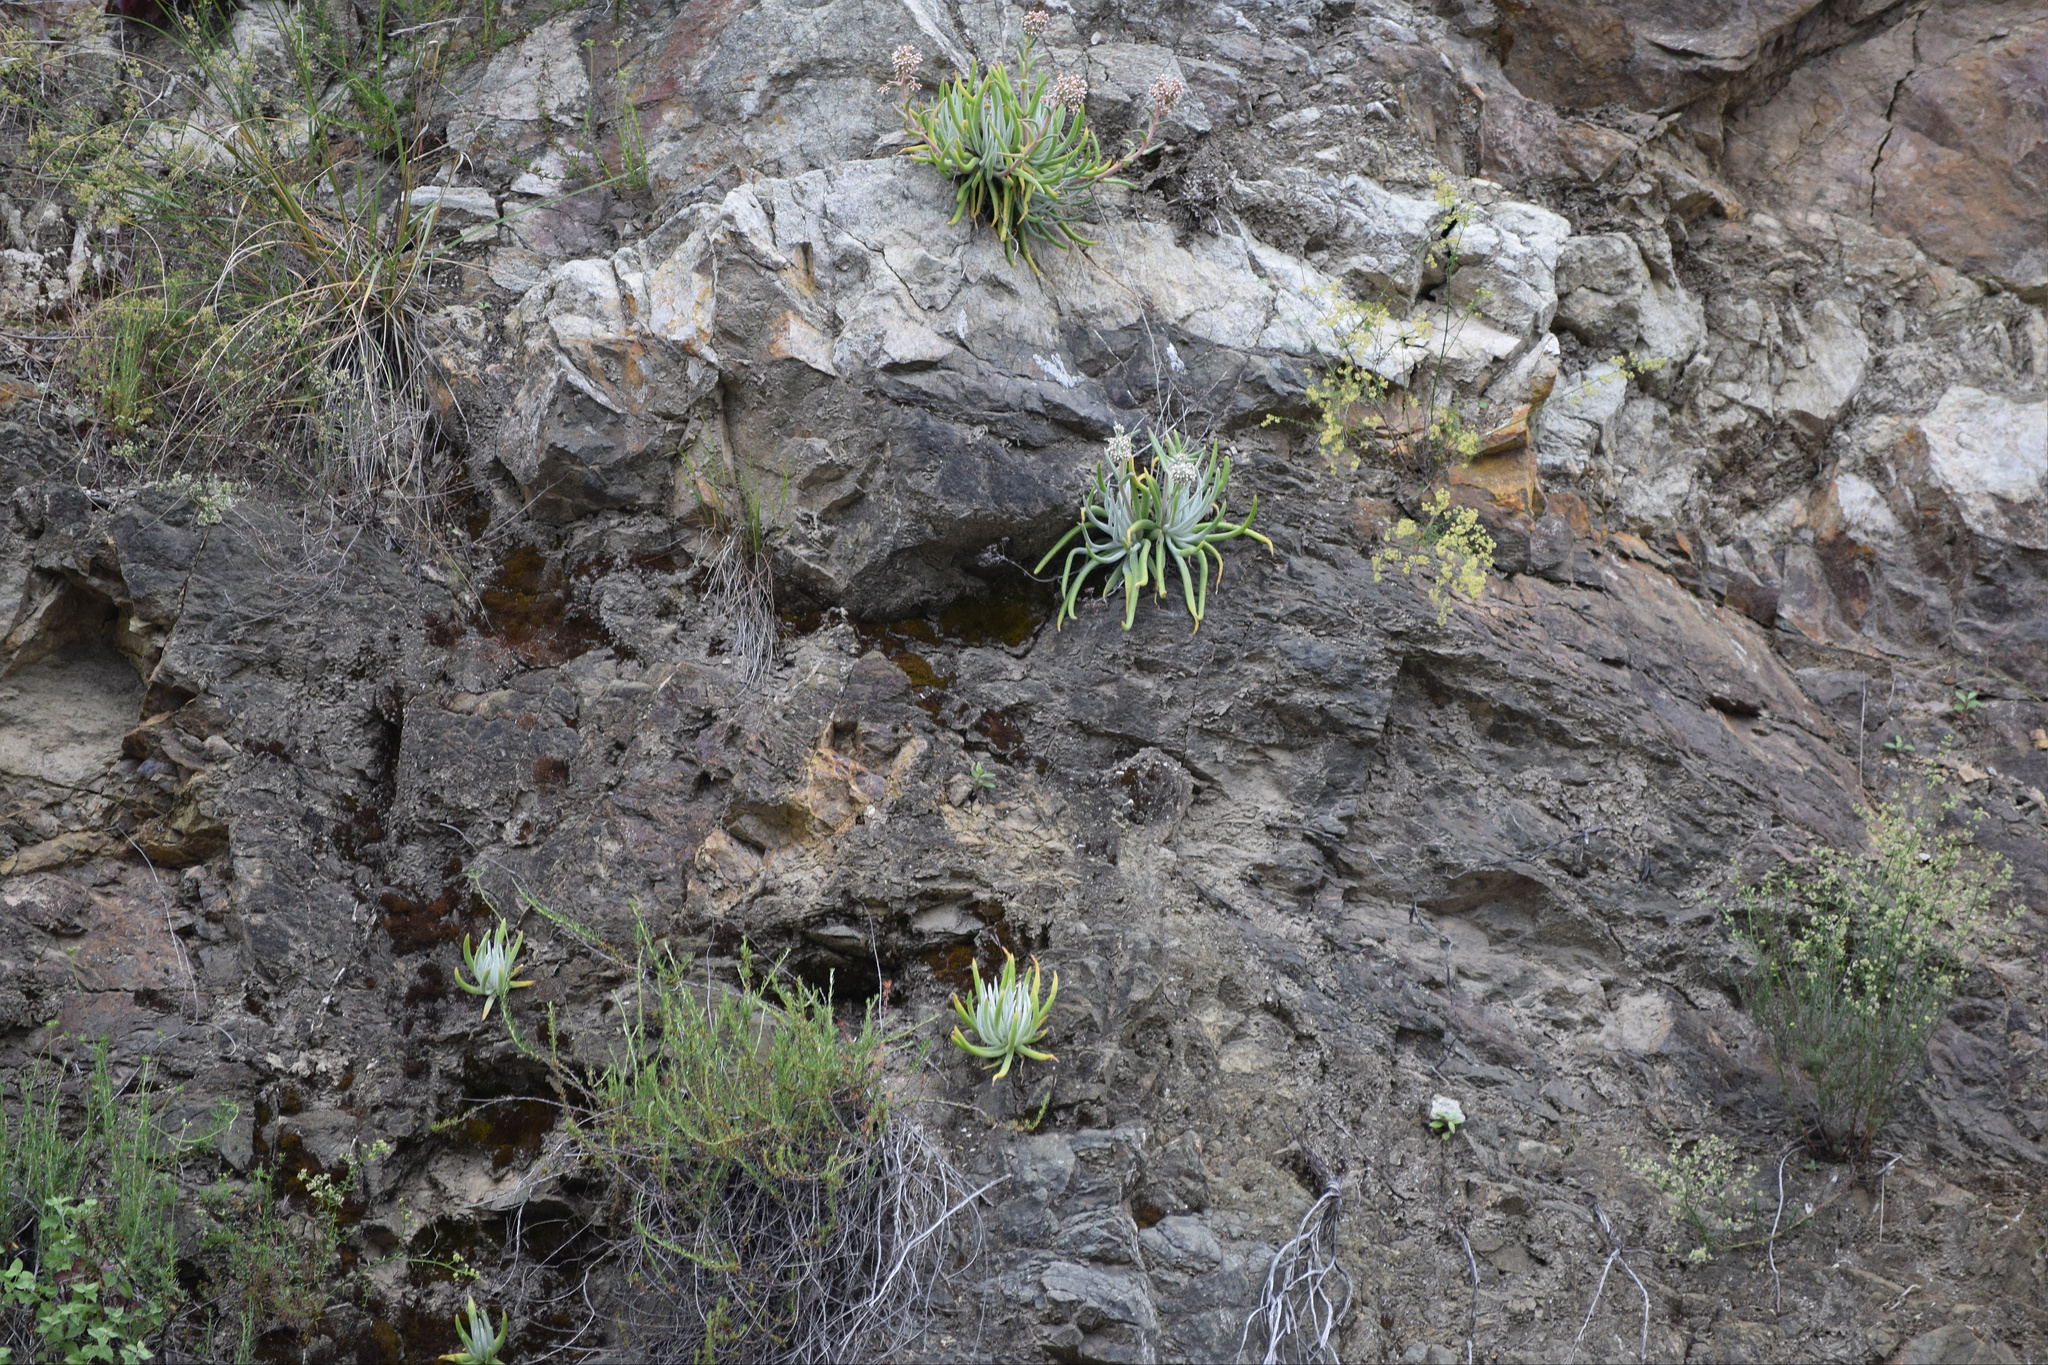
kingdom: Plantae
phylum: Tracheophyta
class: Magnoliopsida
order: Saxifragales
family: Crassulaceae
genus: Dudleya
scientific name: Dudleya densiflora
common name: San gabriel mountains dudleya
